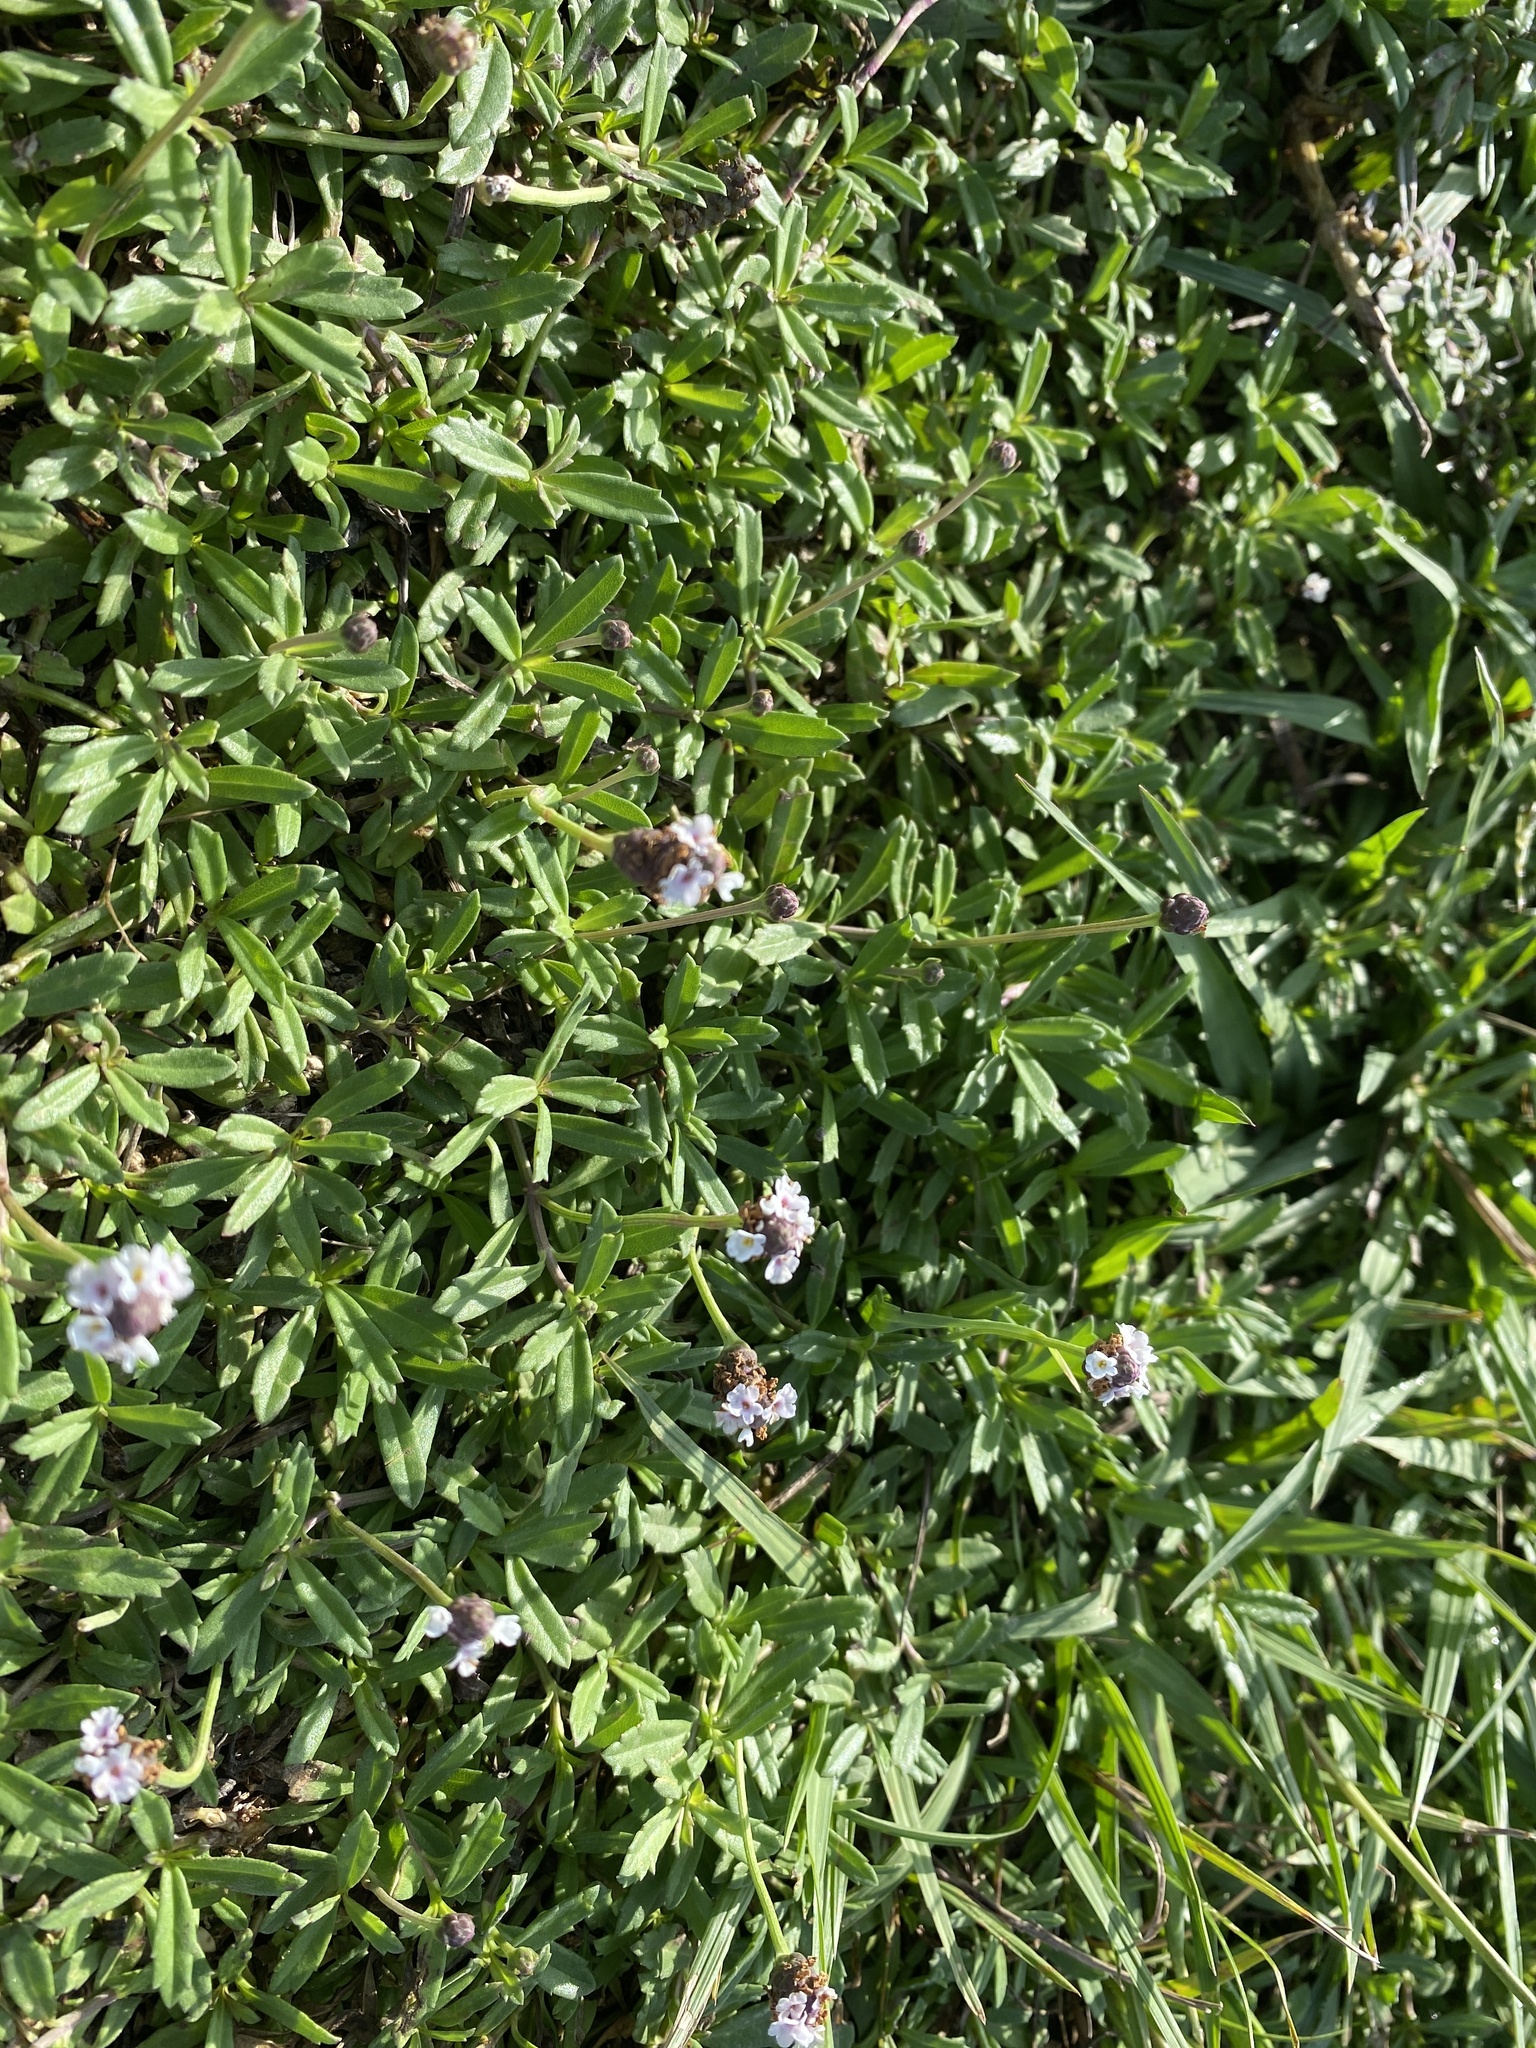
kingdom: Plantae
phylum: Tracheophyta
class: Magnoliopsida
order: Lamiales
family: Verbenaceae
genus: Phyla
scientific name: Phyla nodiflora
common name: Frogfruit
